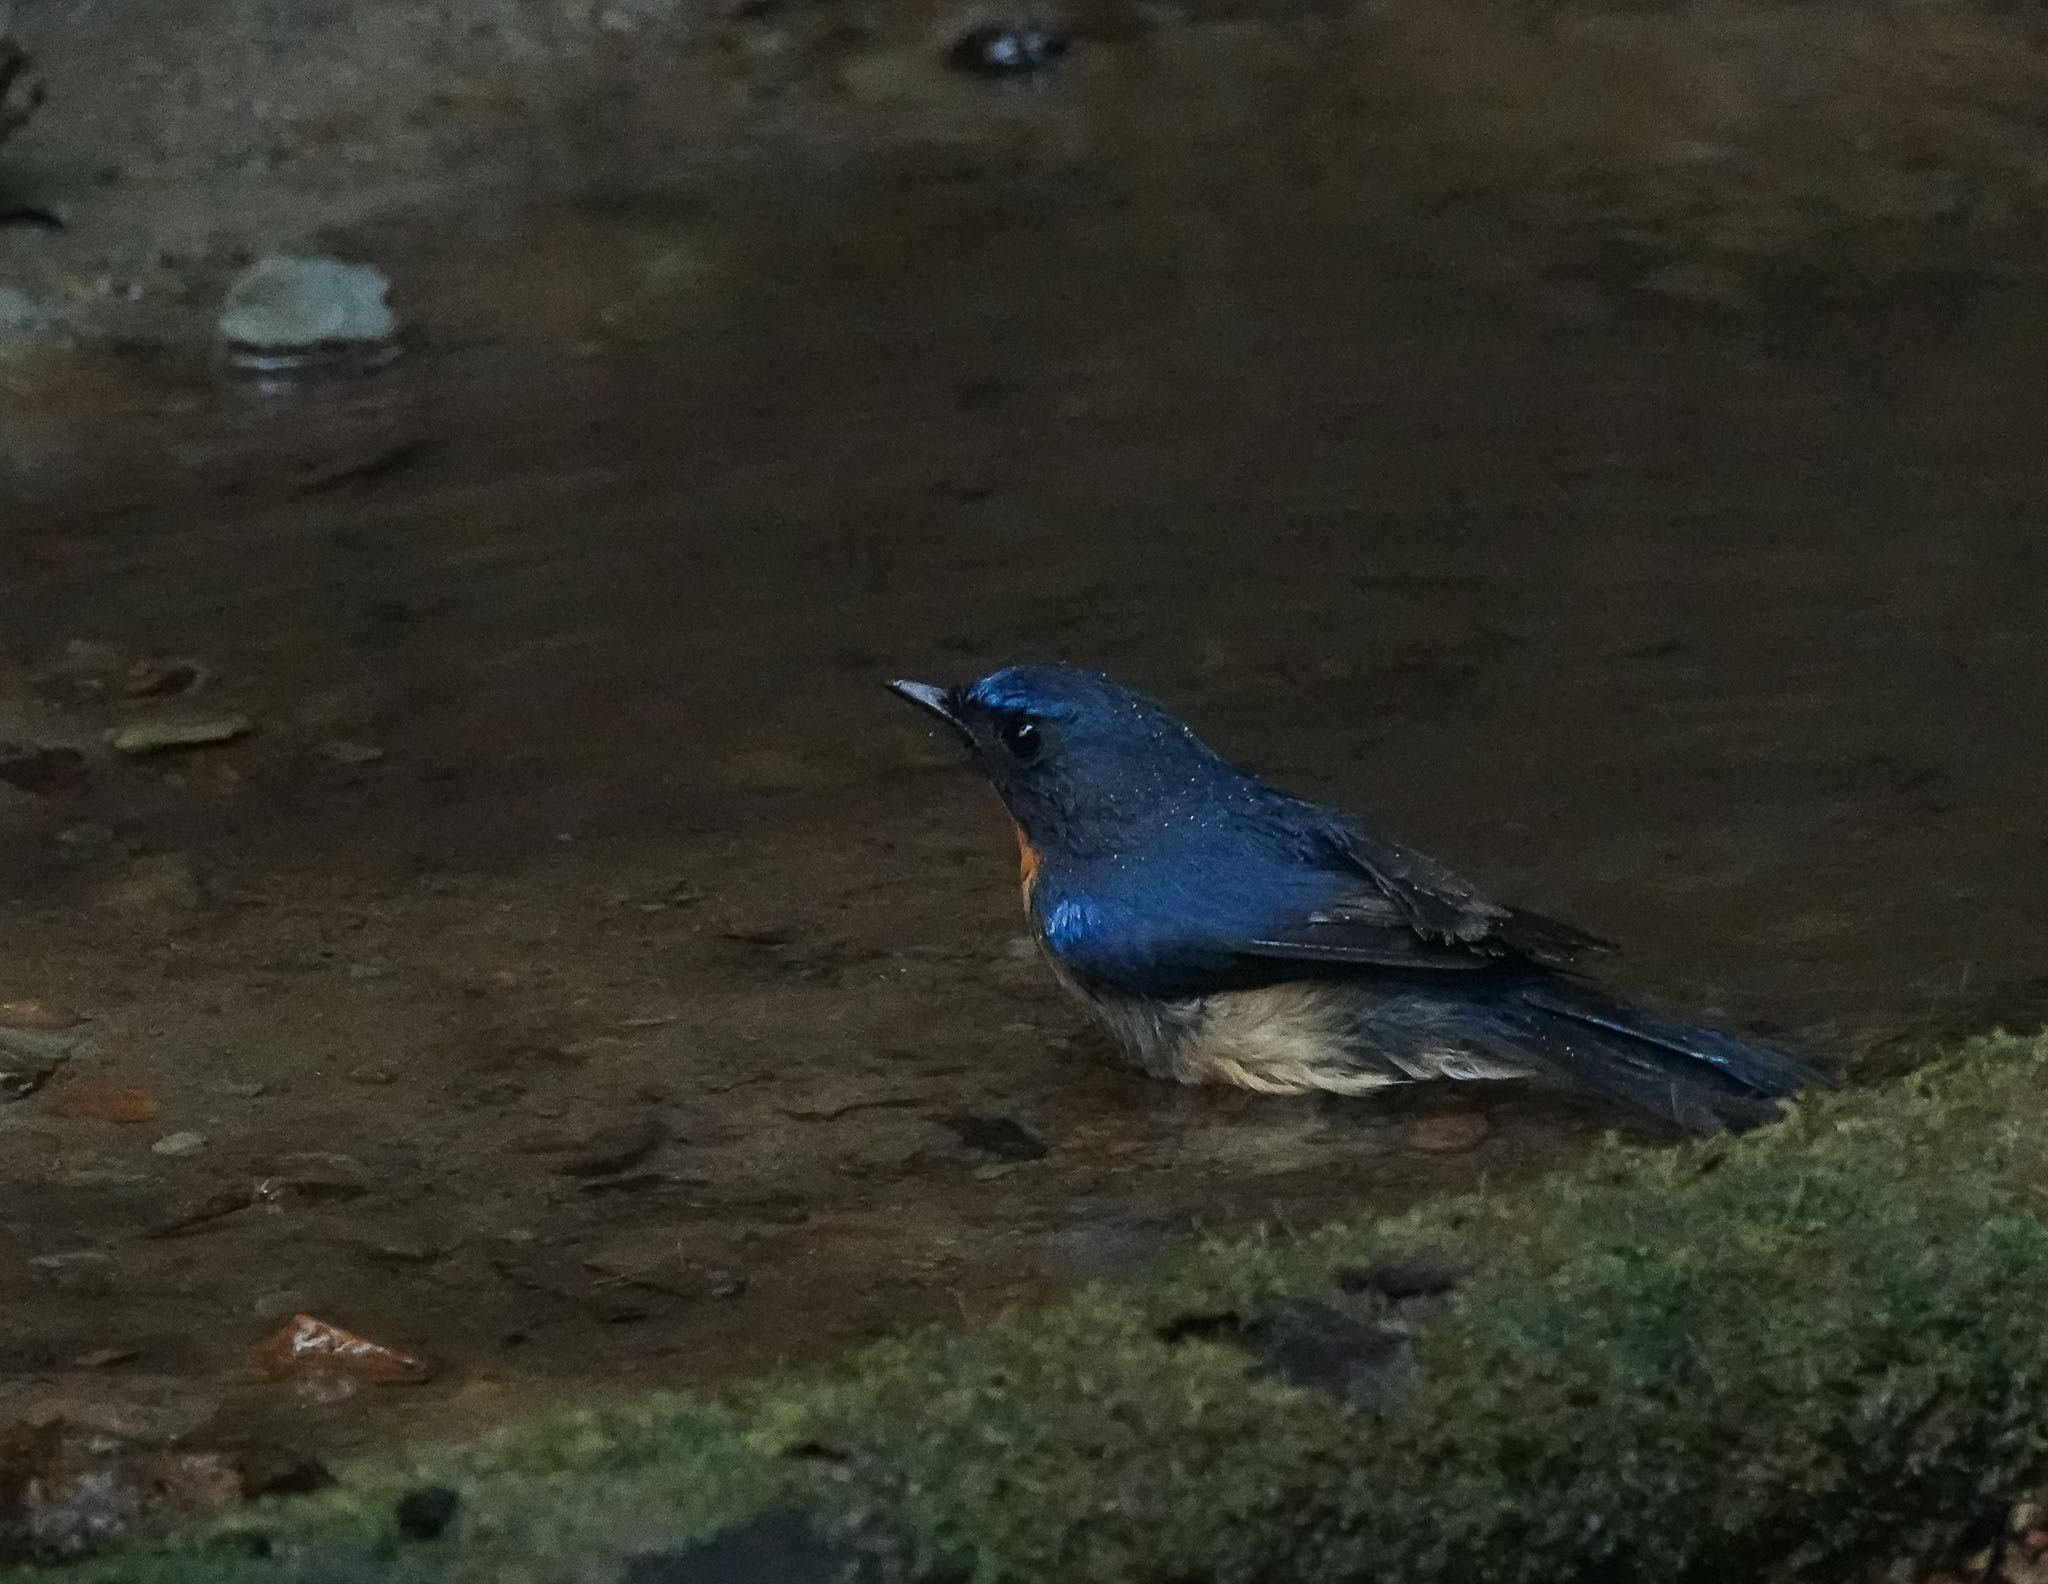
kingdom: Animalia
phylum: Chordata
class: Aves
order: Passeriformes
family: Muscicapidae
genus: Cyornis
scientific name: Cyornis whitei
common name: Hill blue flycatcher
